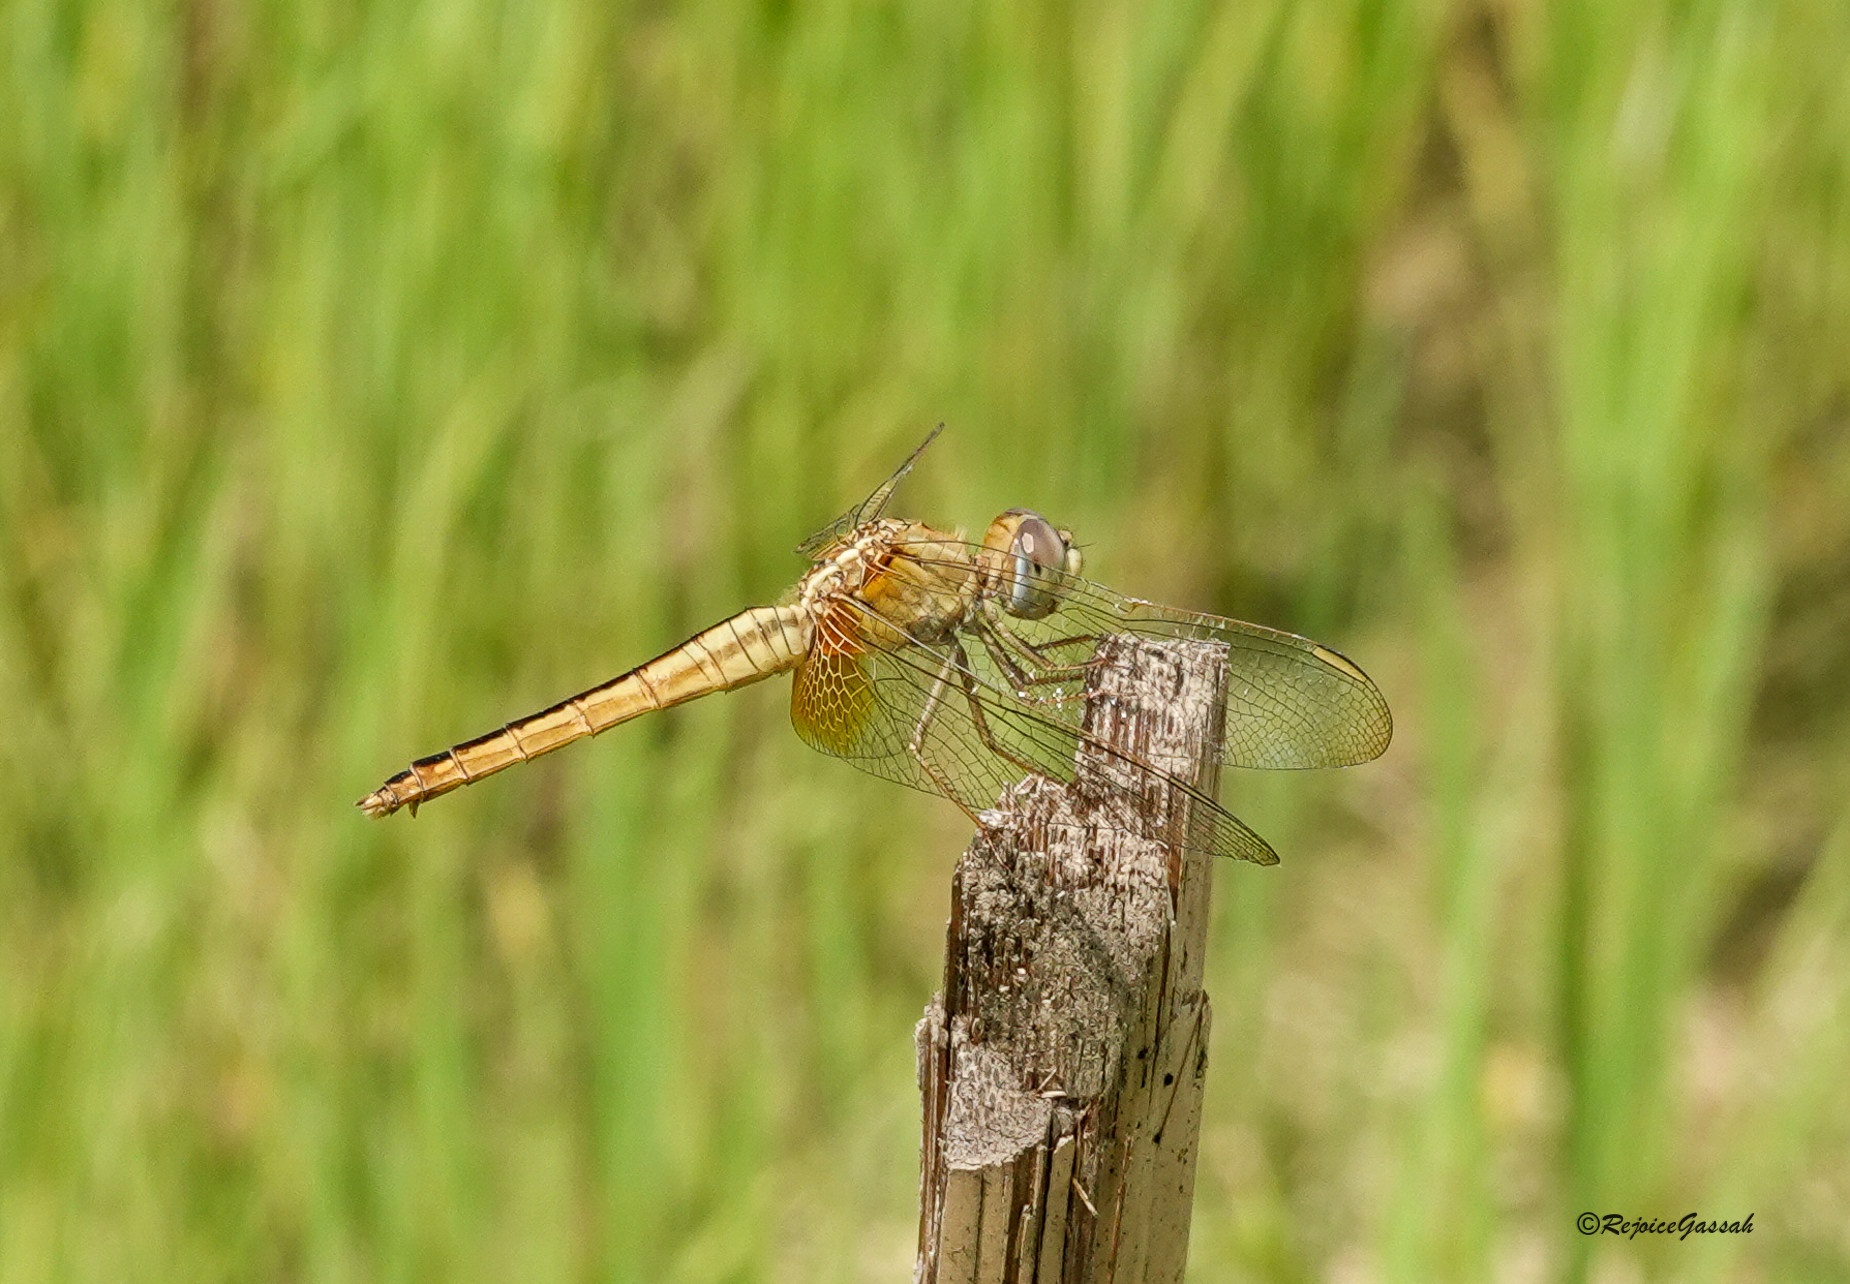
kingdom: Animalia
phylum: Arthropoda
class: Insecta
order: Odonata
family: Libellulidae
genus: Crocothemis
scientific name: Crocothemis servilia
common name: Scarlet skimmer
